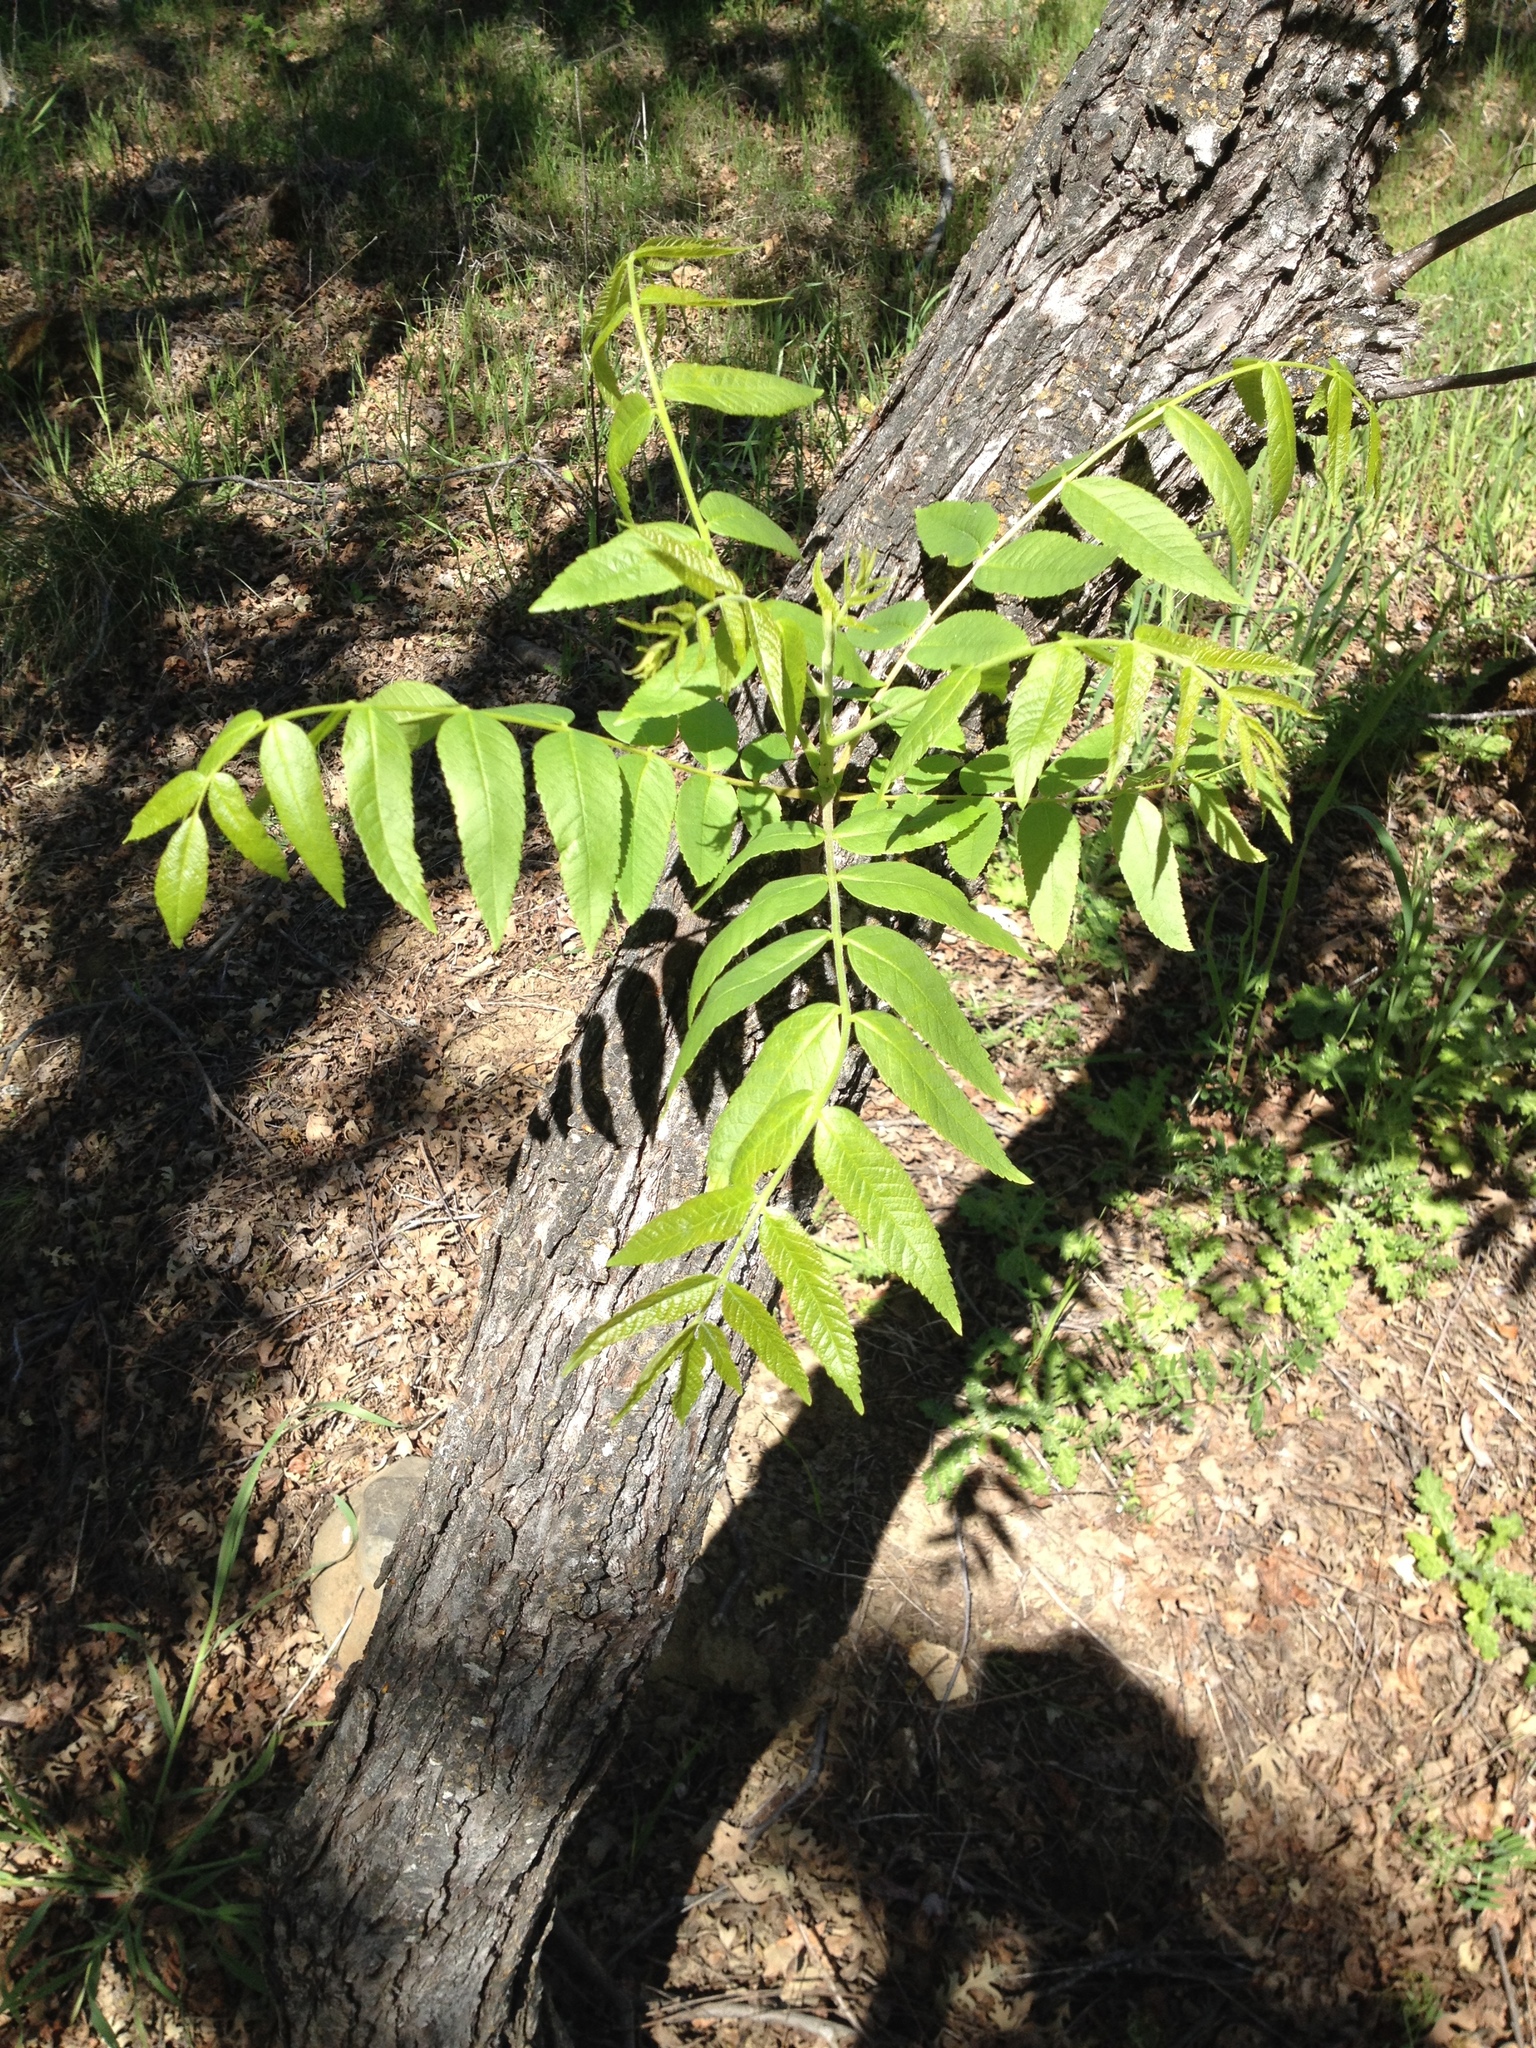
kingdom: Plantae
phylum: Tracheophyta
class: Magnoliopsida
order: Fagales
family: Juglandaceae
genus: Juglans
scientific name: Juglans hindsii
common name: Northern california black walnut
